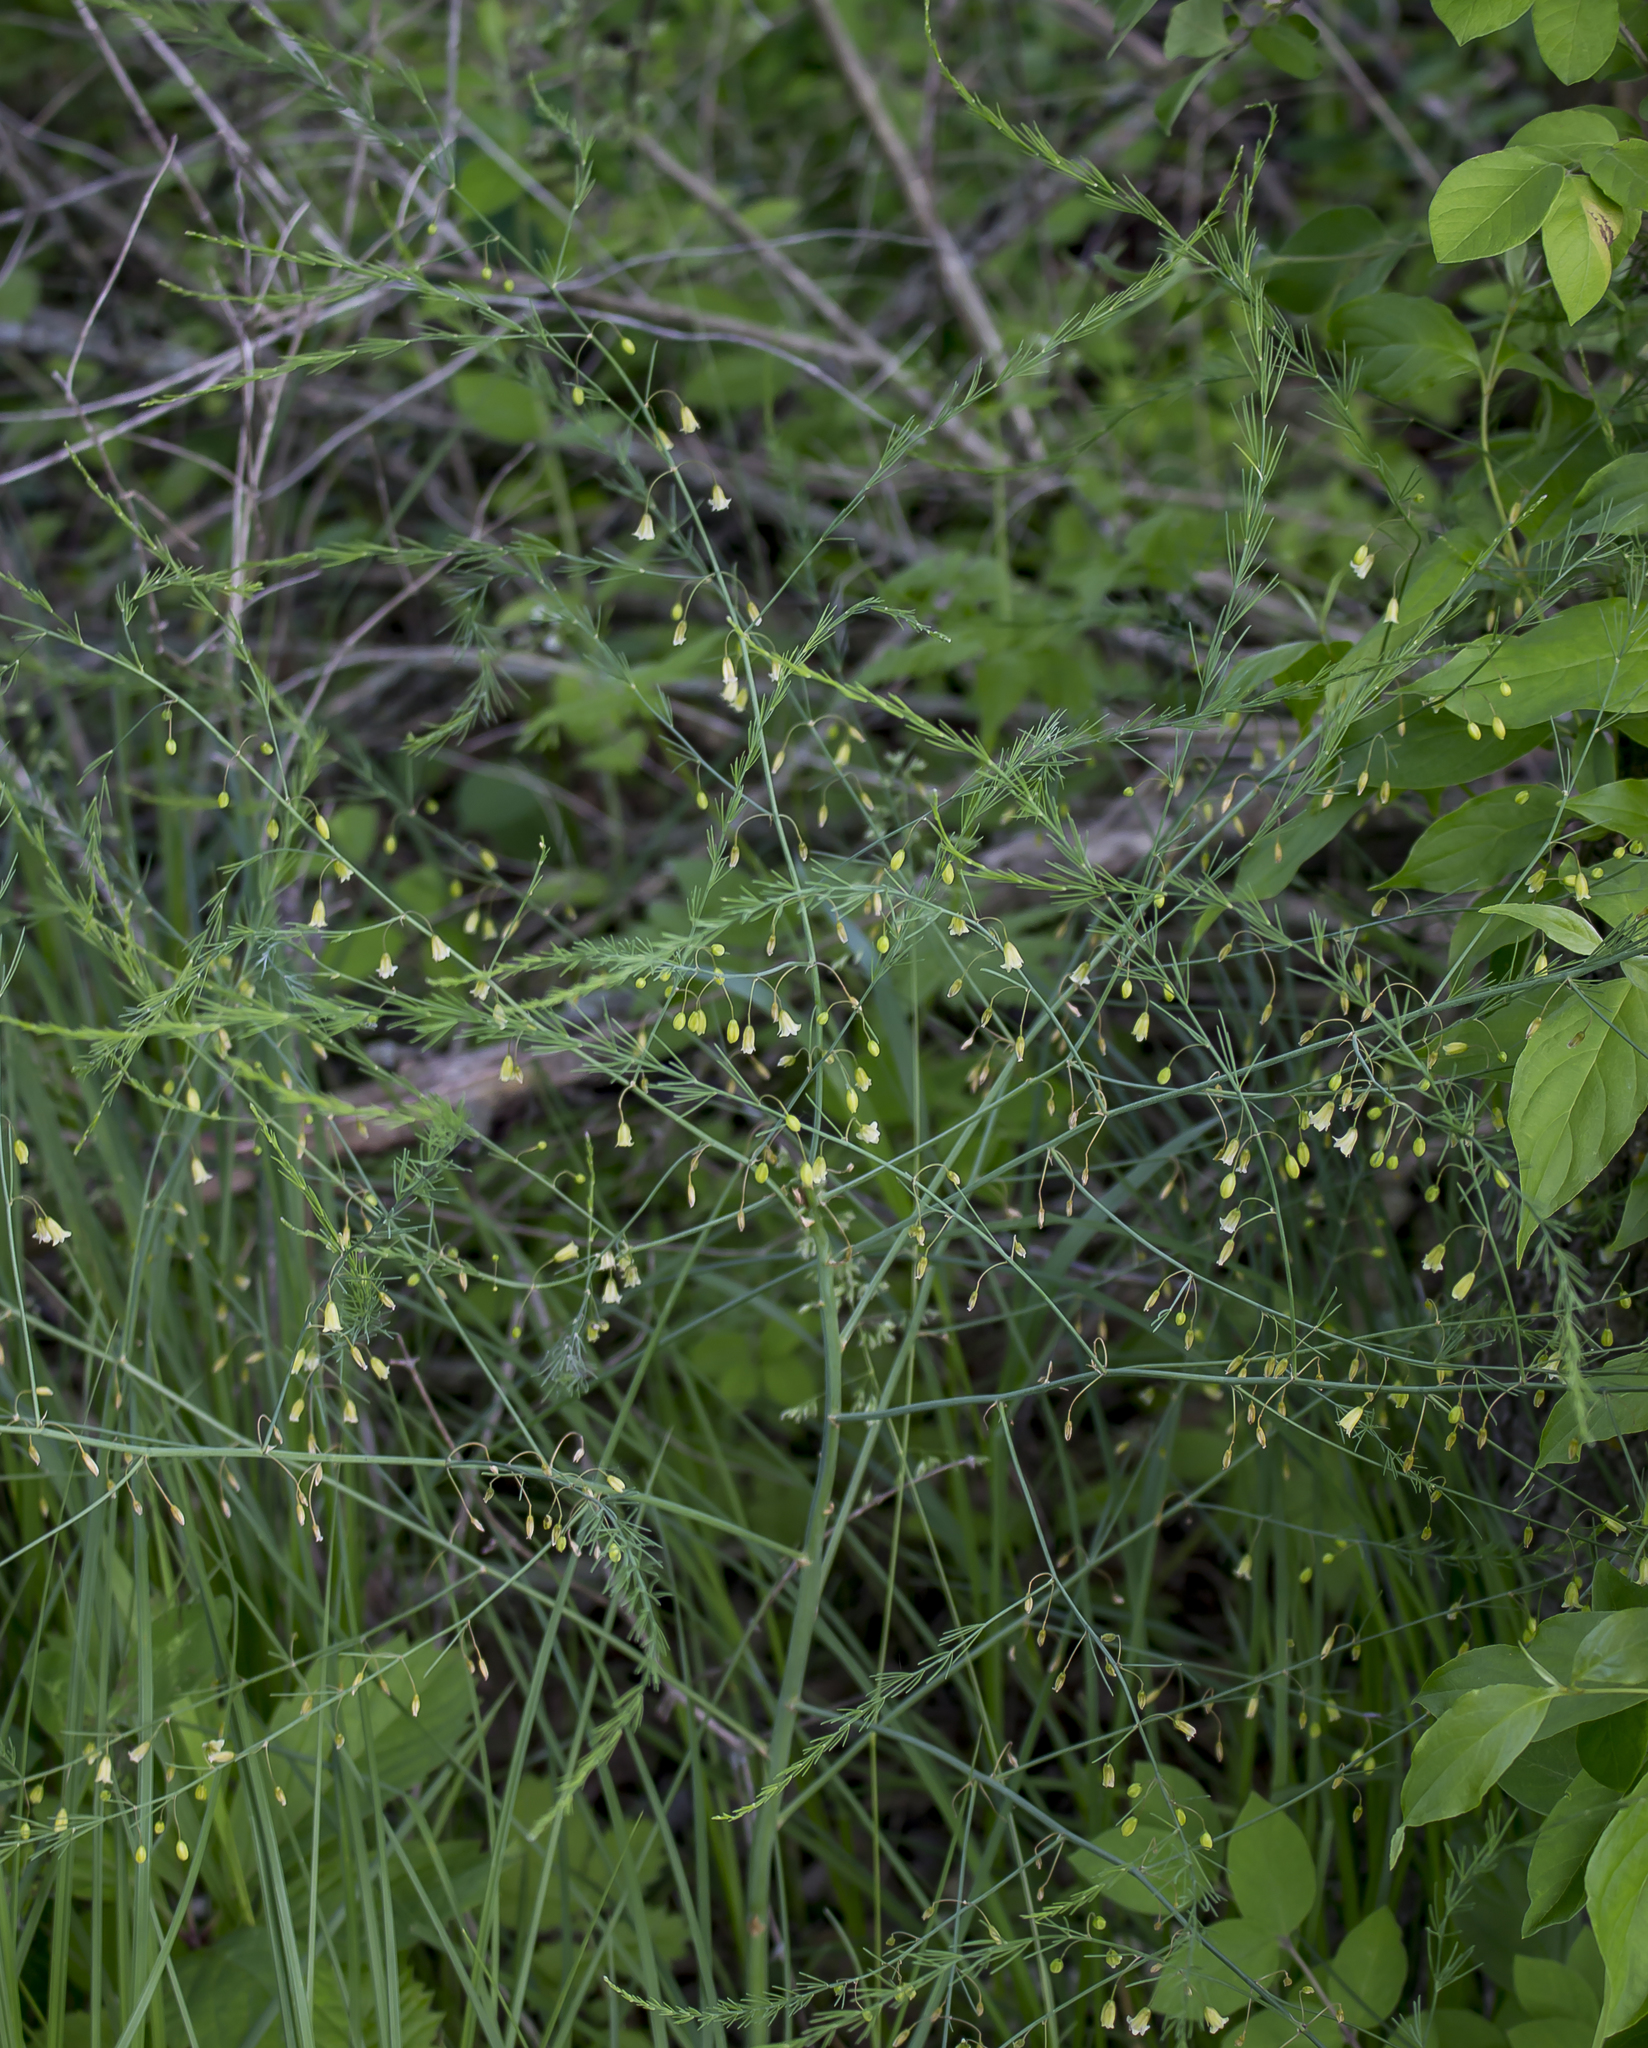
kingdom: Plantae
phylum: Tracheophyta
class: Liliopsida
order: Asparagales
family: Asparagaceae
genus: Asparagus
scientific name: Asparagus officinalis
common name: Garden asparagus
